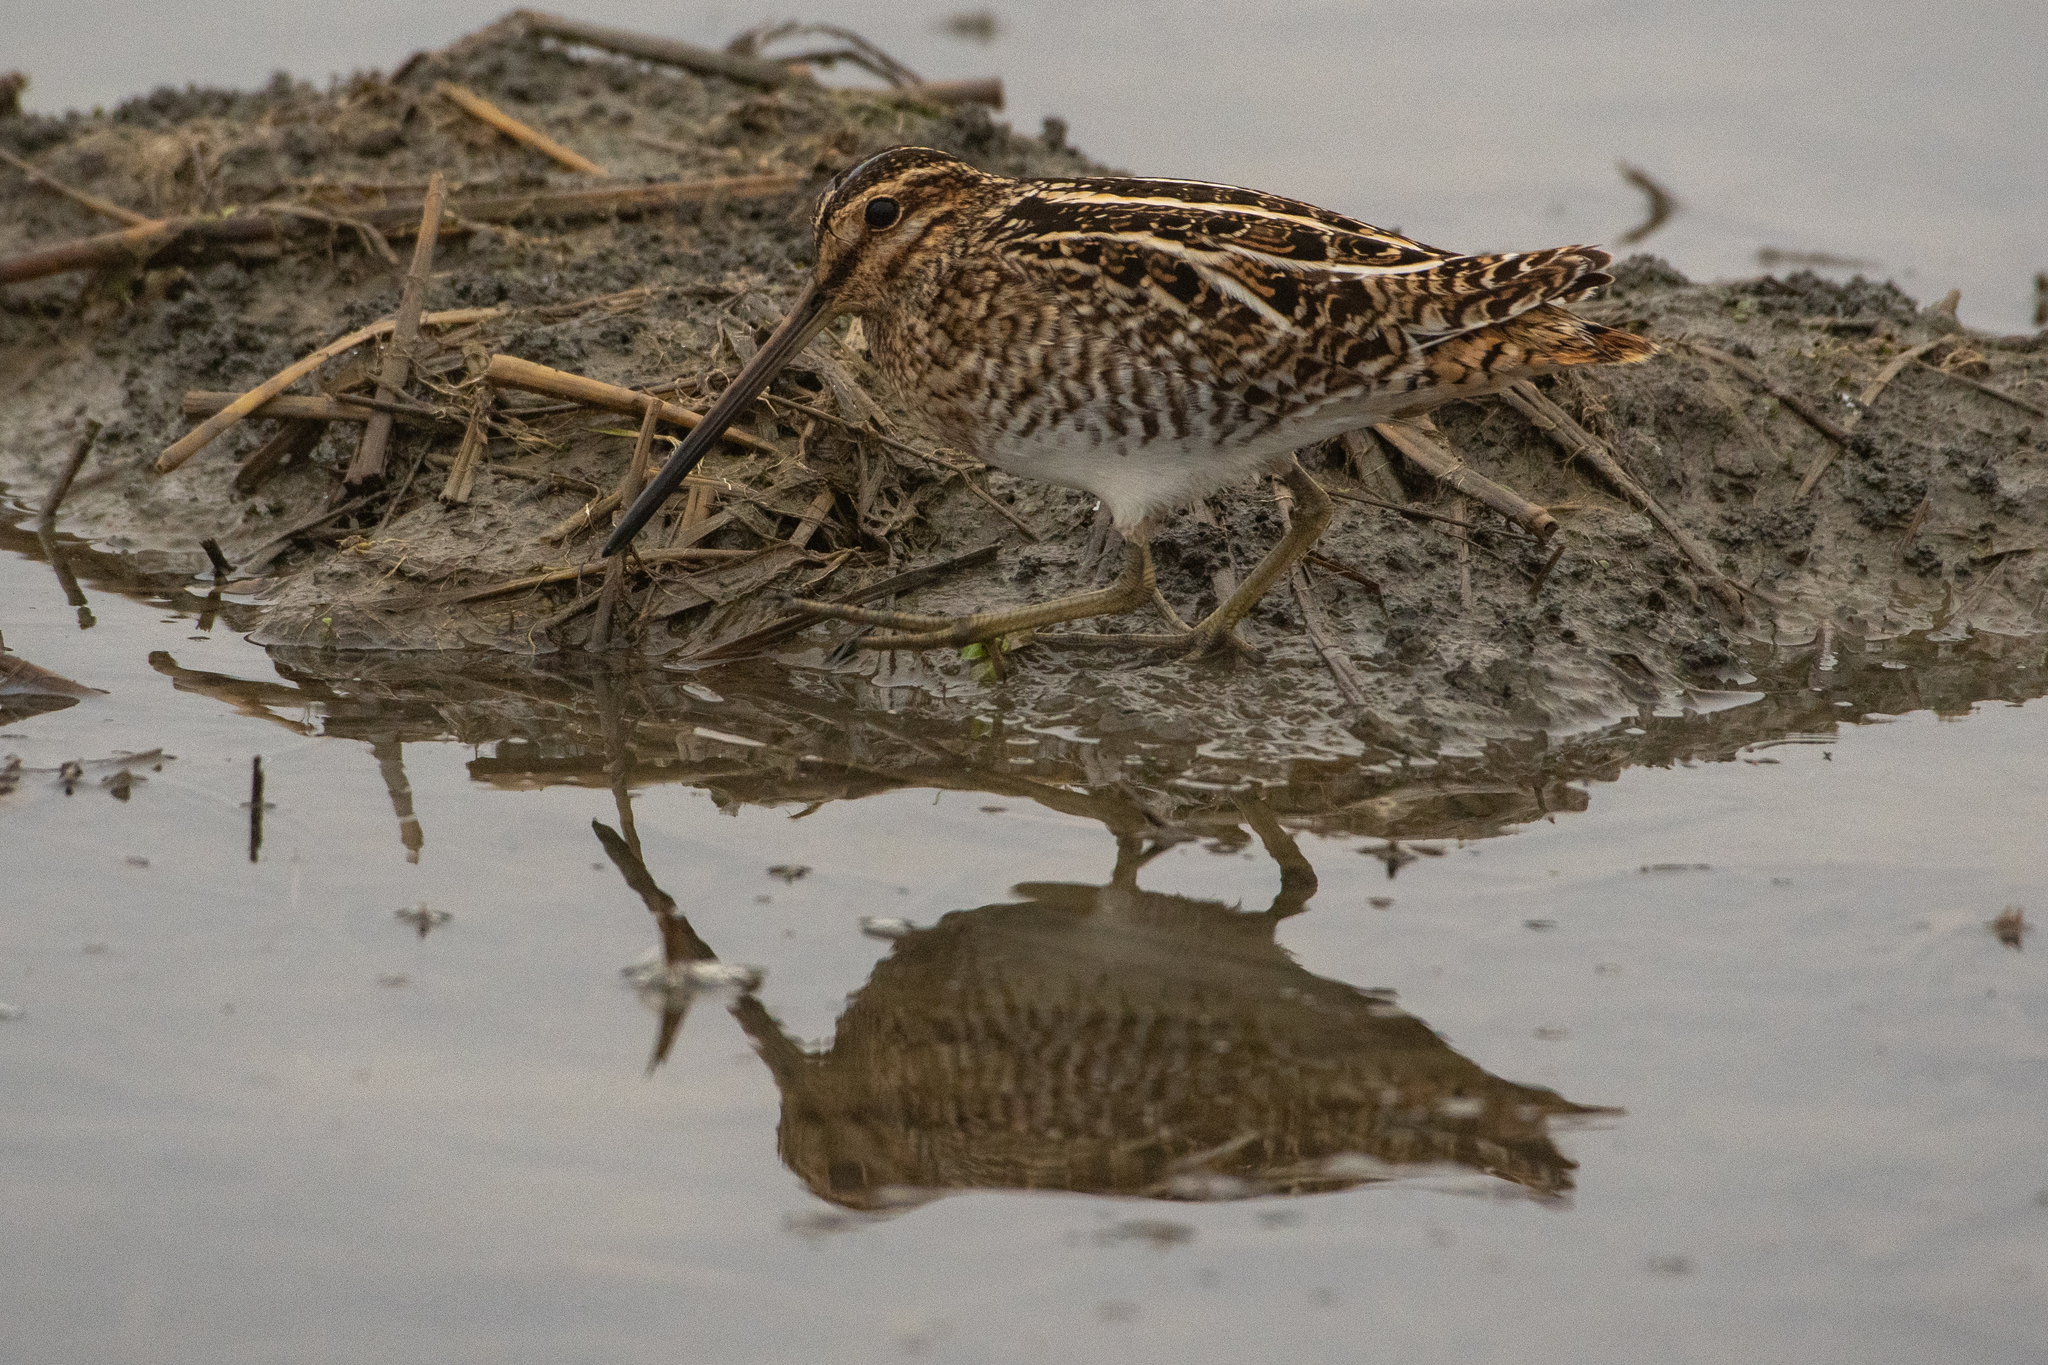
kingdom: Animalia
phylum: Chordata
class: Aves
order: Charadriiformes
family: Scolopacidae
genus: Gallinago
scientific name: Gallinago delicata
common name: Wilson's snipe
